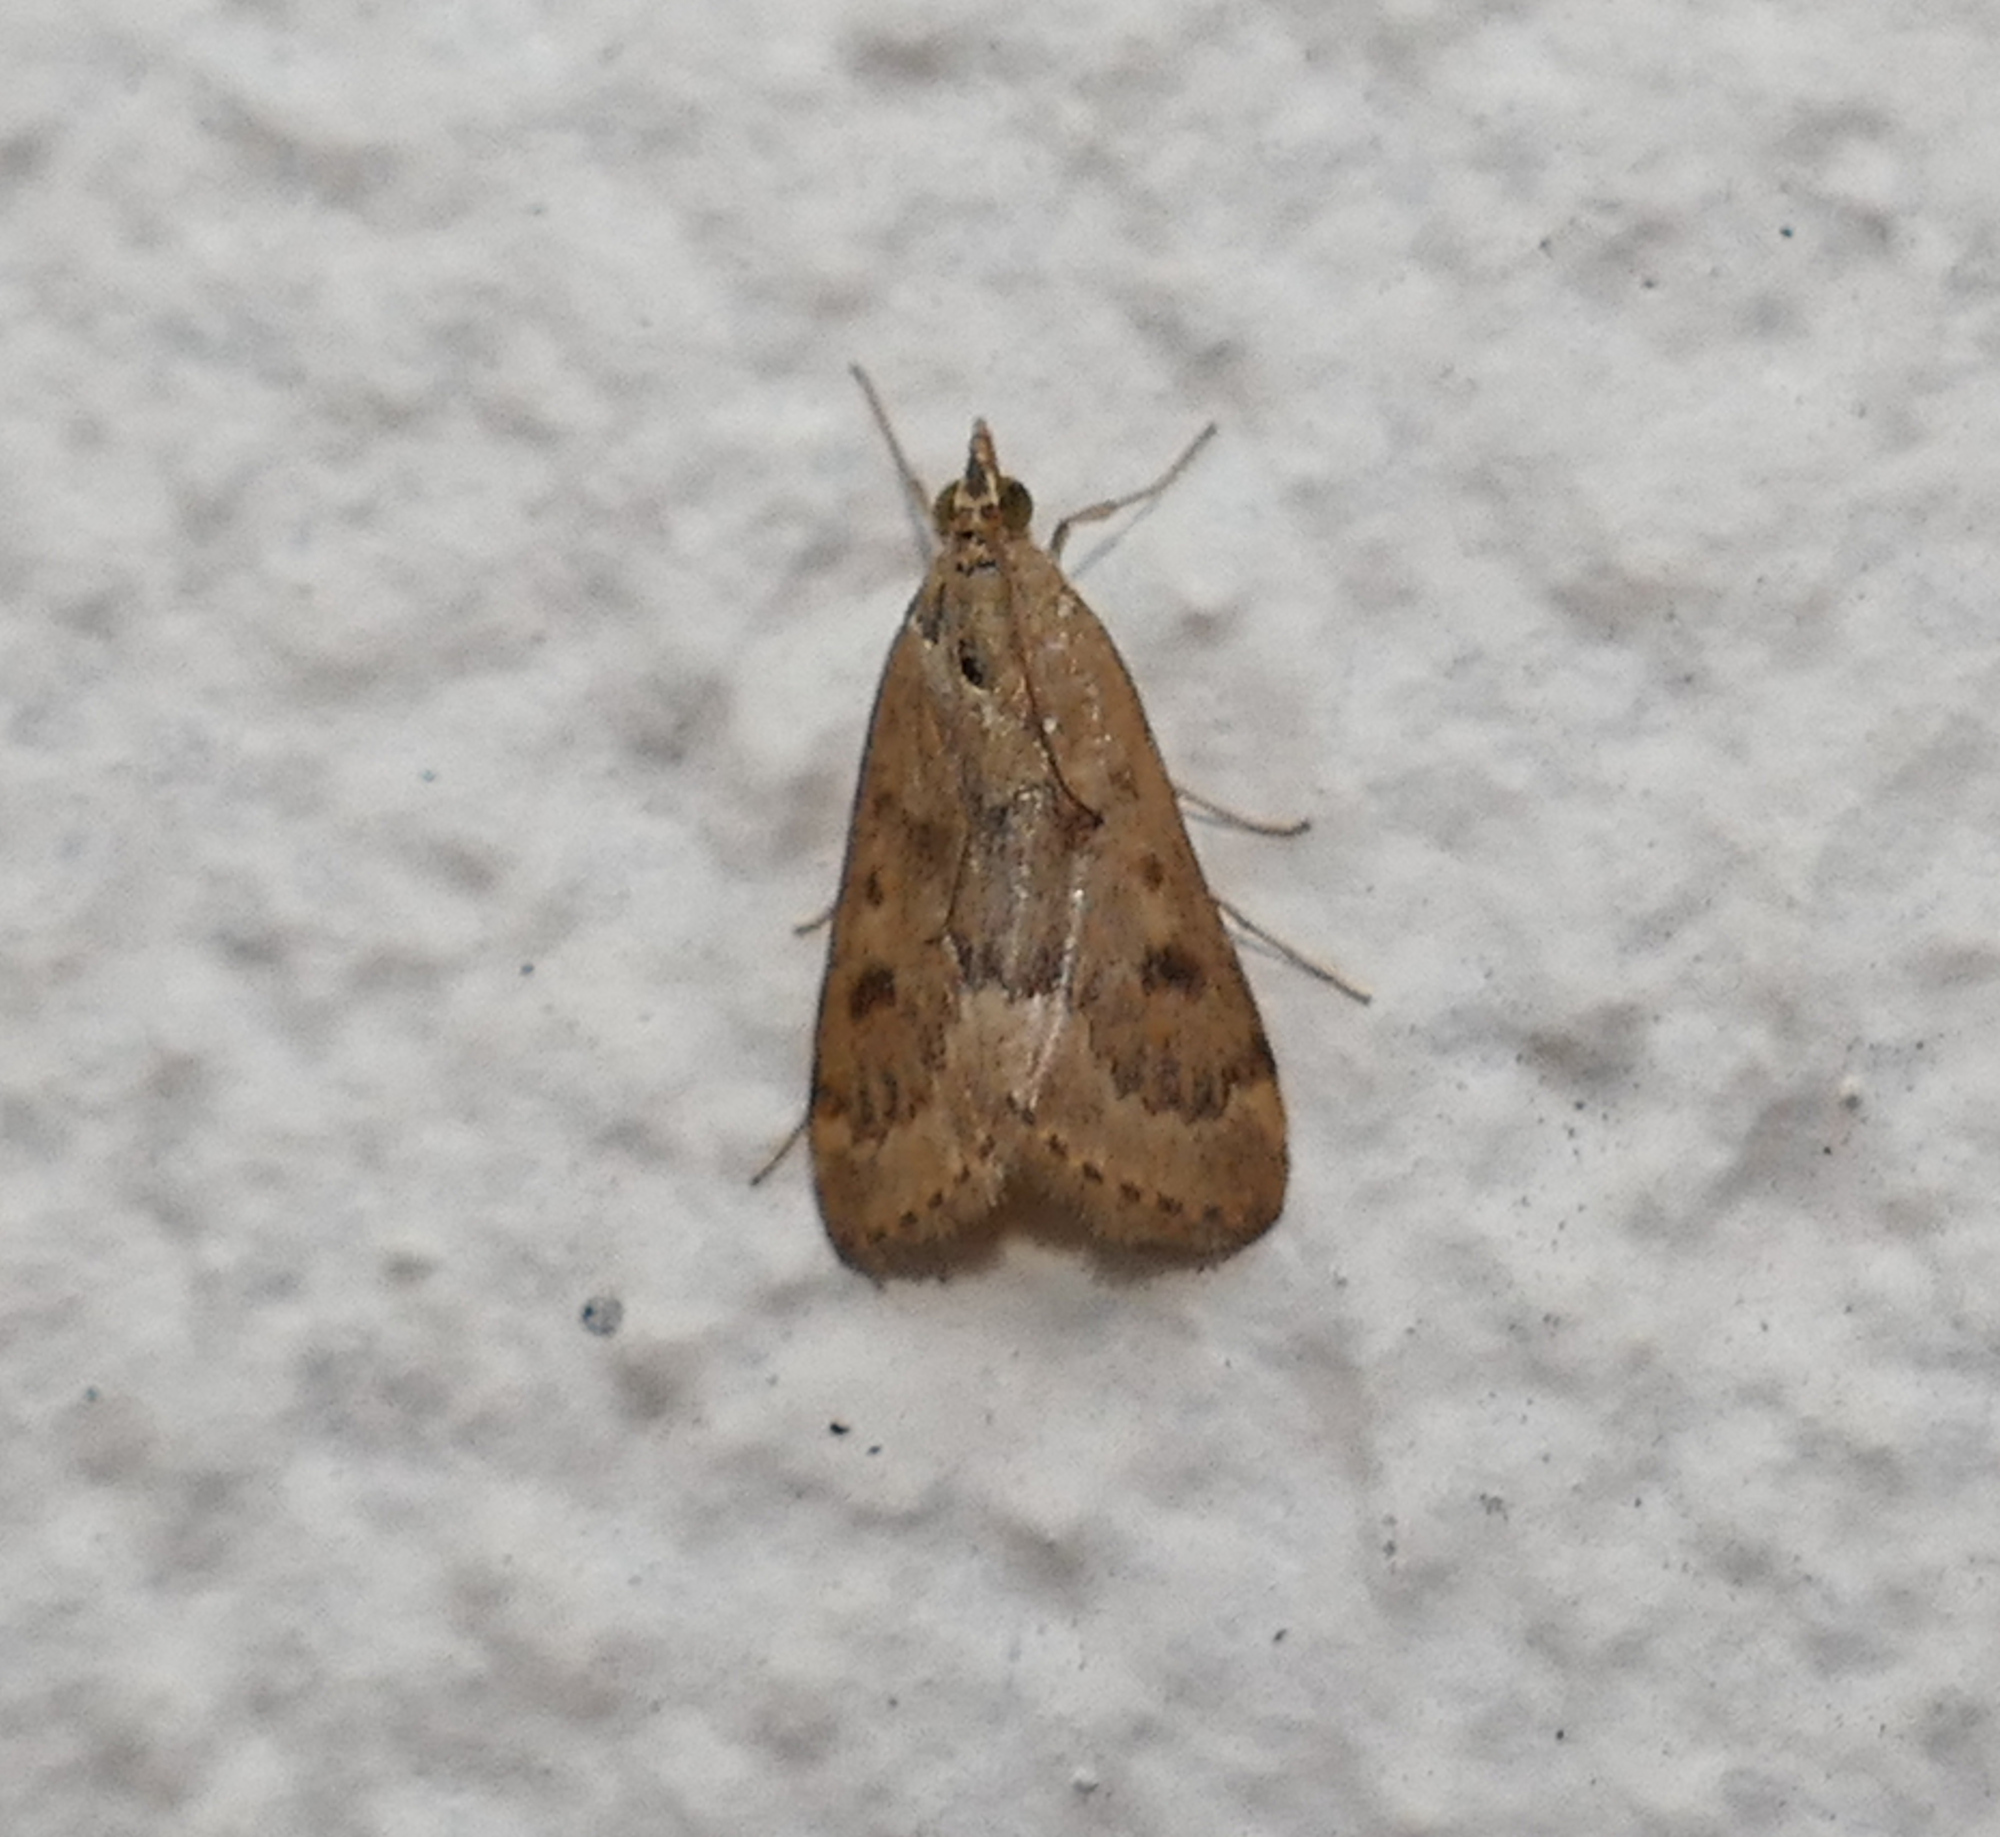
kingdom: Animalia
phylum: Arthropoda
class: Insecta
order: Lepidoptera
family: Crambidae
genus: Achyra
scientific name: Achyra rantalis
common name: Garden webworm
